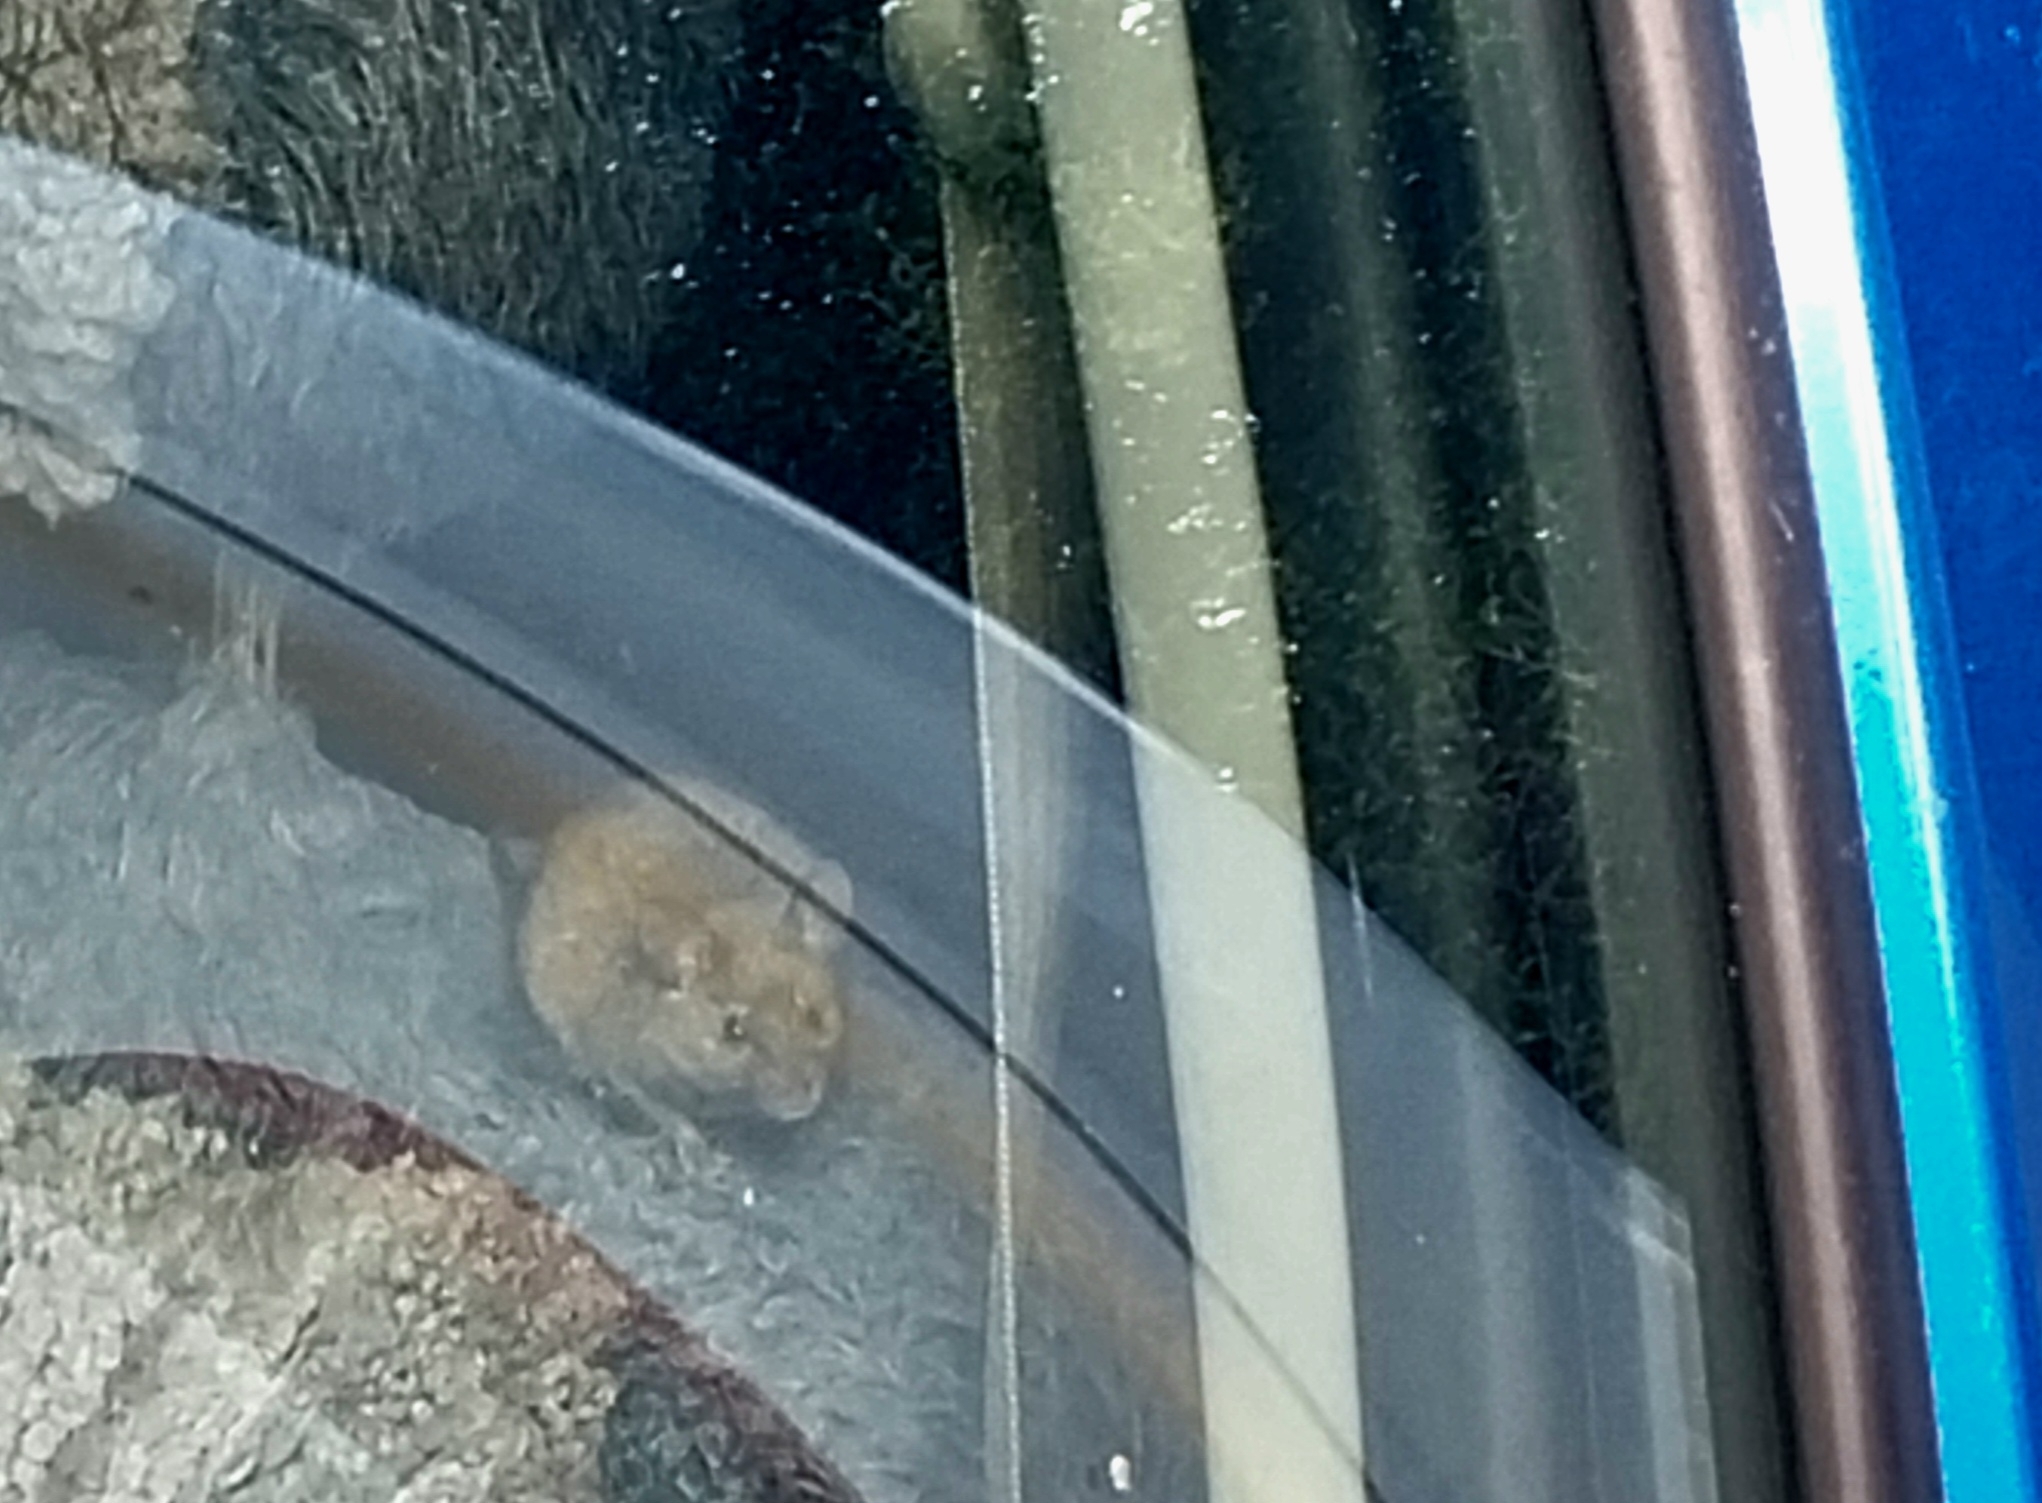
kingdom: Animalia
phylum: Chordata
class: Mammalia
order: Rodentia
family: Muridae
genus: Mus
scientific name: Mus musculus
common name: House mouse
